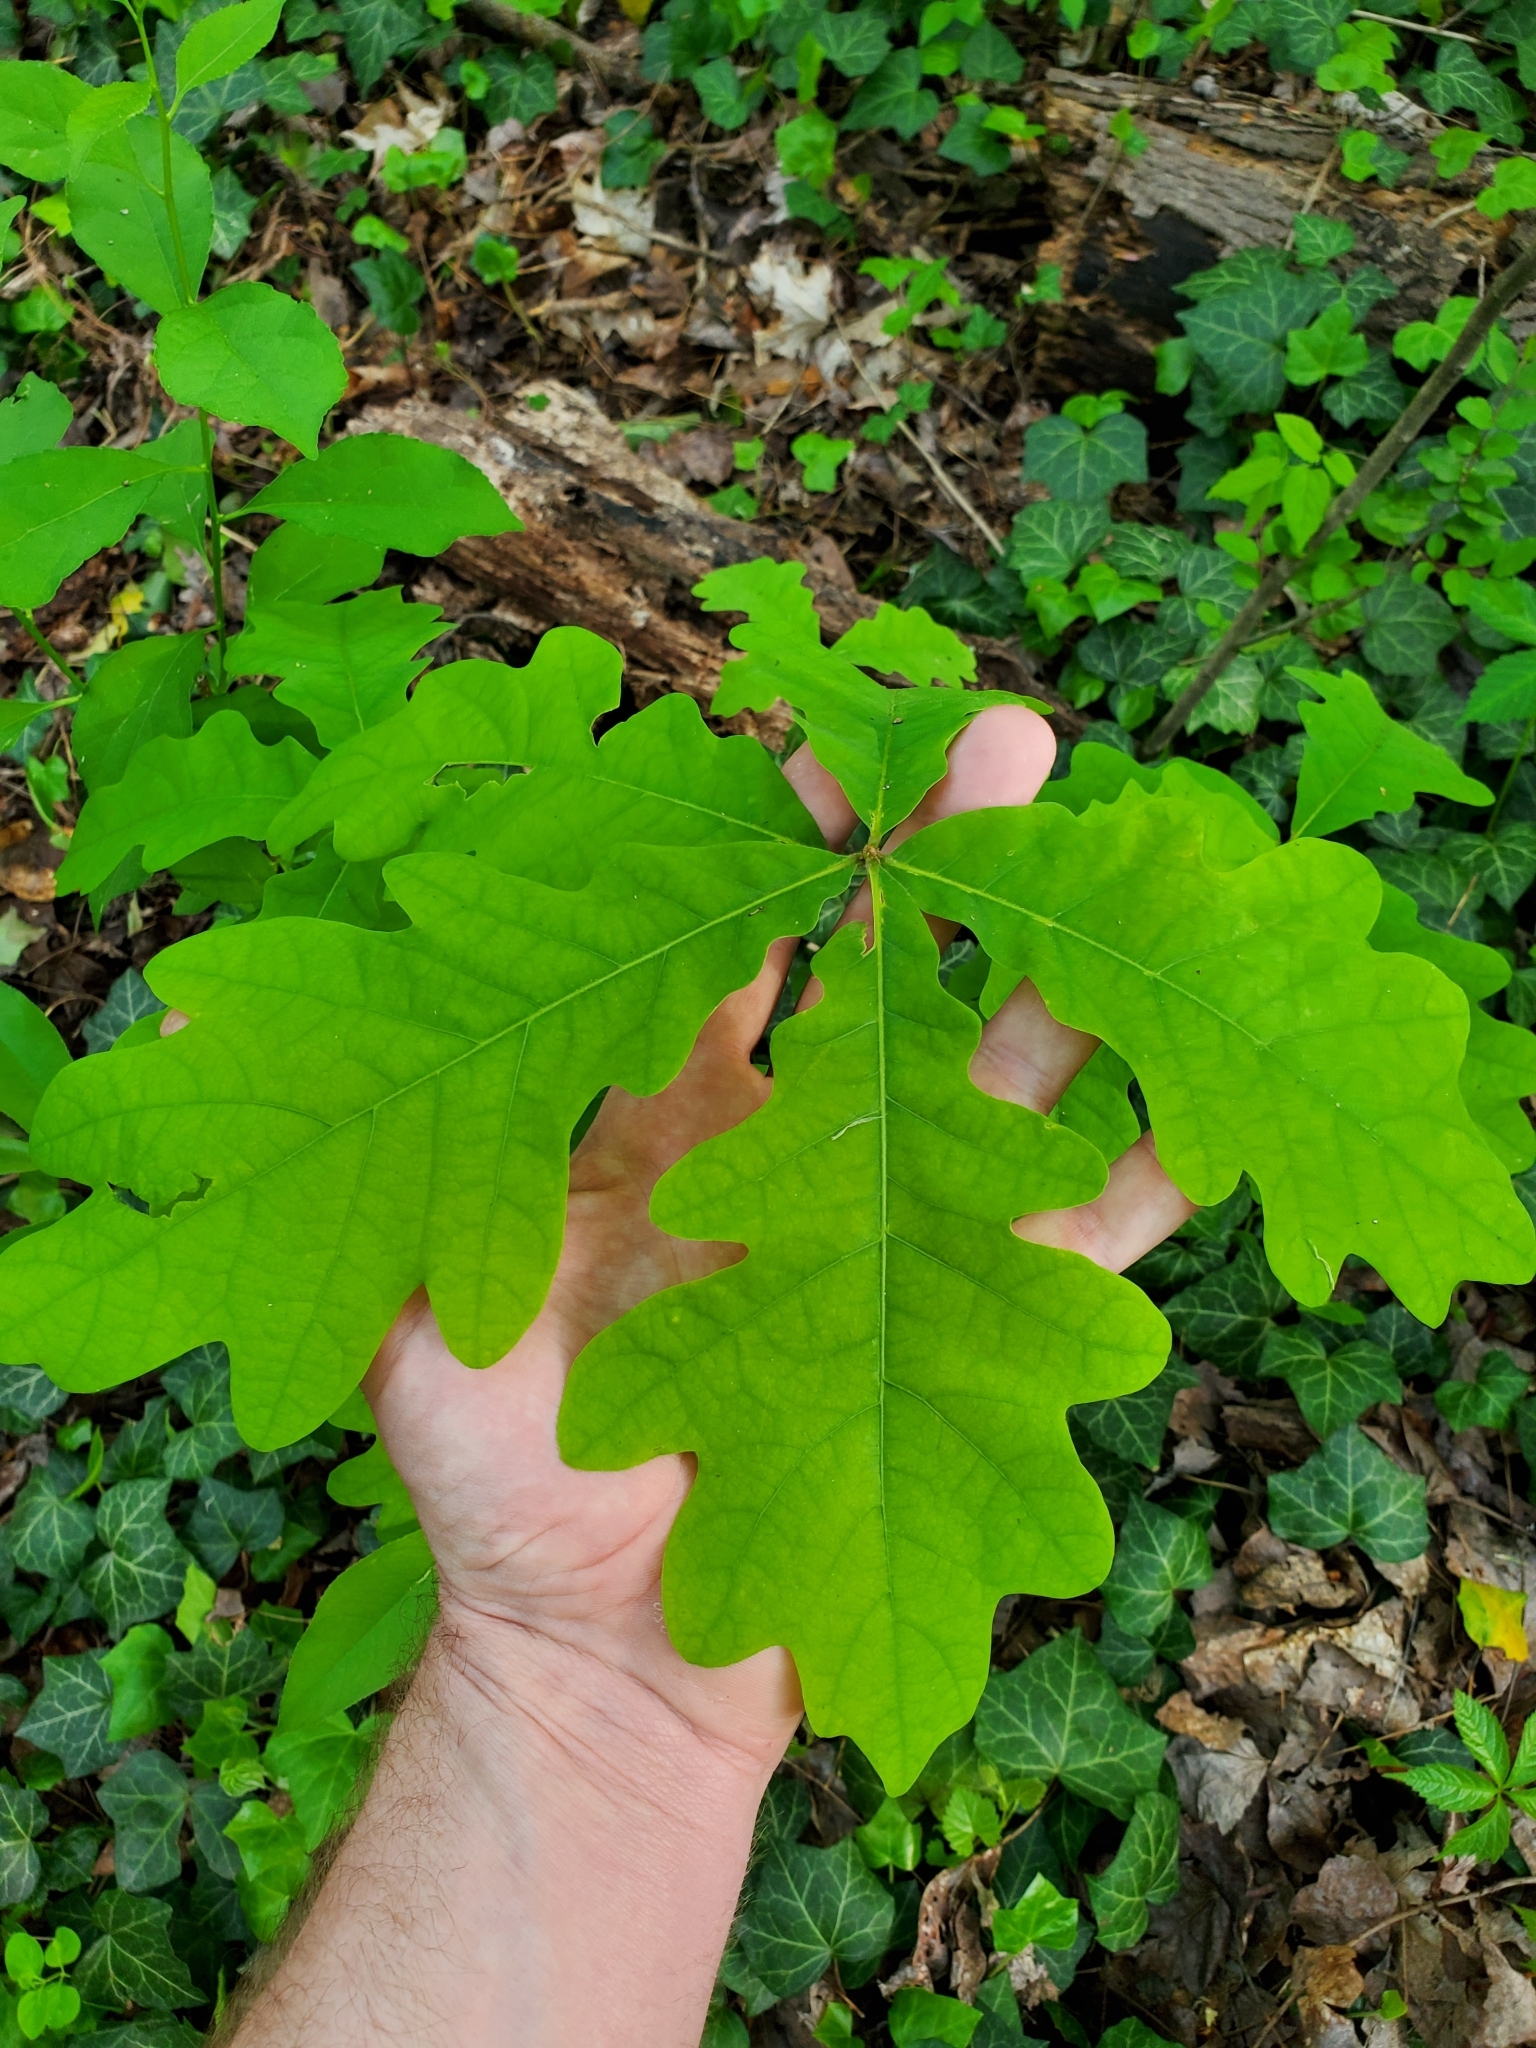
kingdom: Plantae
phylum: Tracheophyta
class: Magnoliopsida
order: Fagales
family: Fagaceae
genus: Quercus
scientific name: Quercus robur
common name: Pedunculate oak
